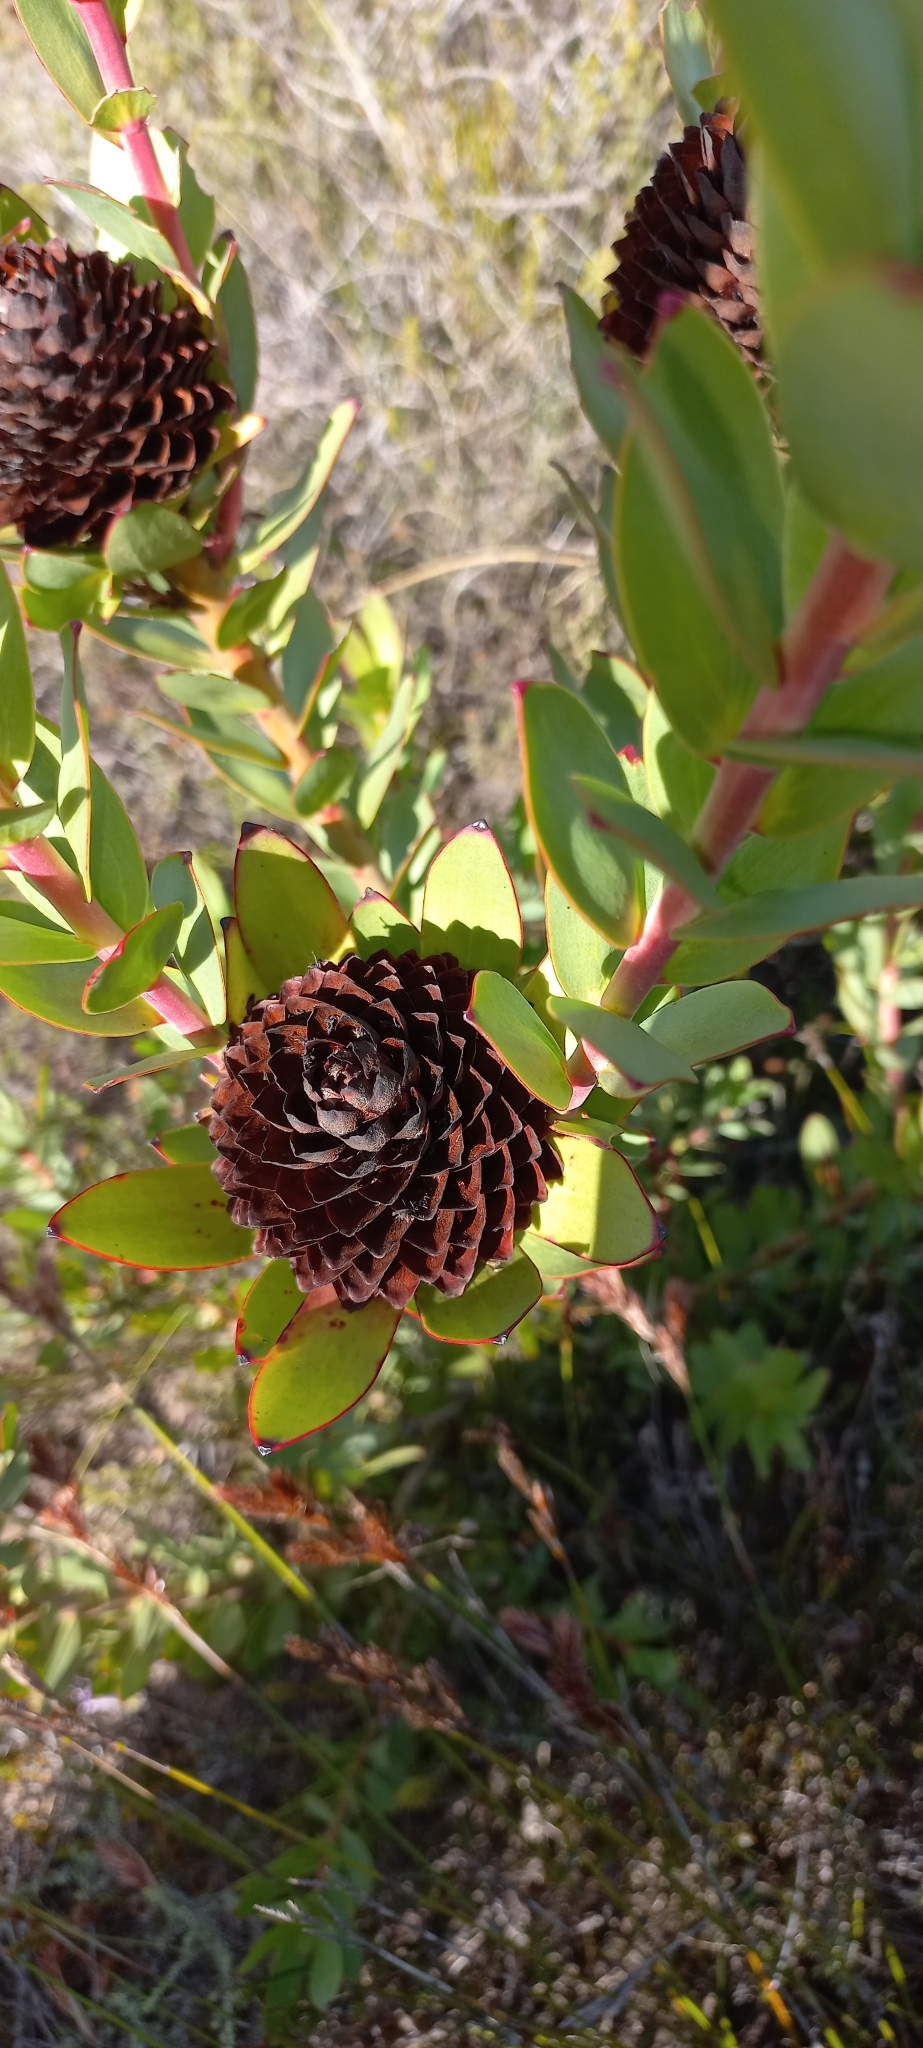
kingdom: Plantae
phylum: Tracheophyta
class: Magnoliopsida
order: Proteales
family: Proteaceae
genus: Leucadendron
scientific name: Leucadendron elimense
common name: Elim conebush
